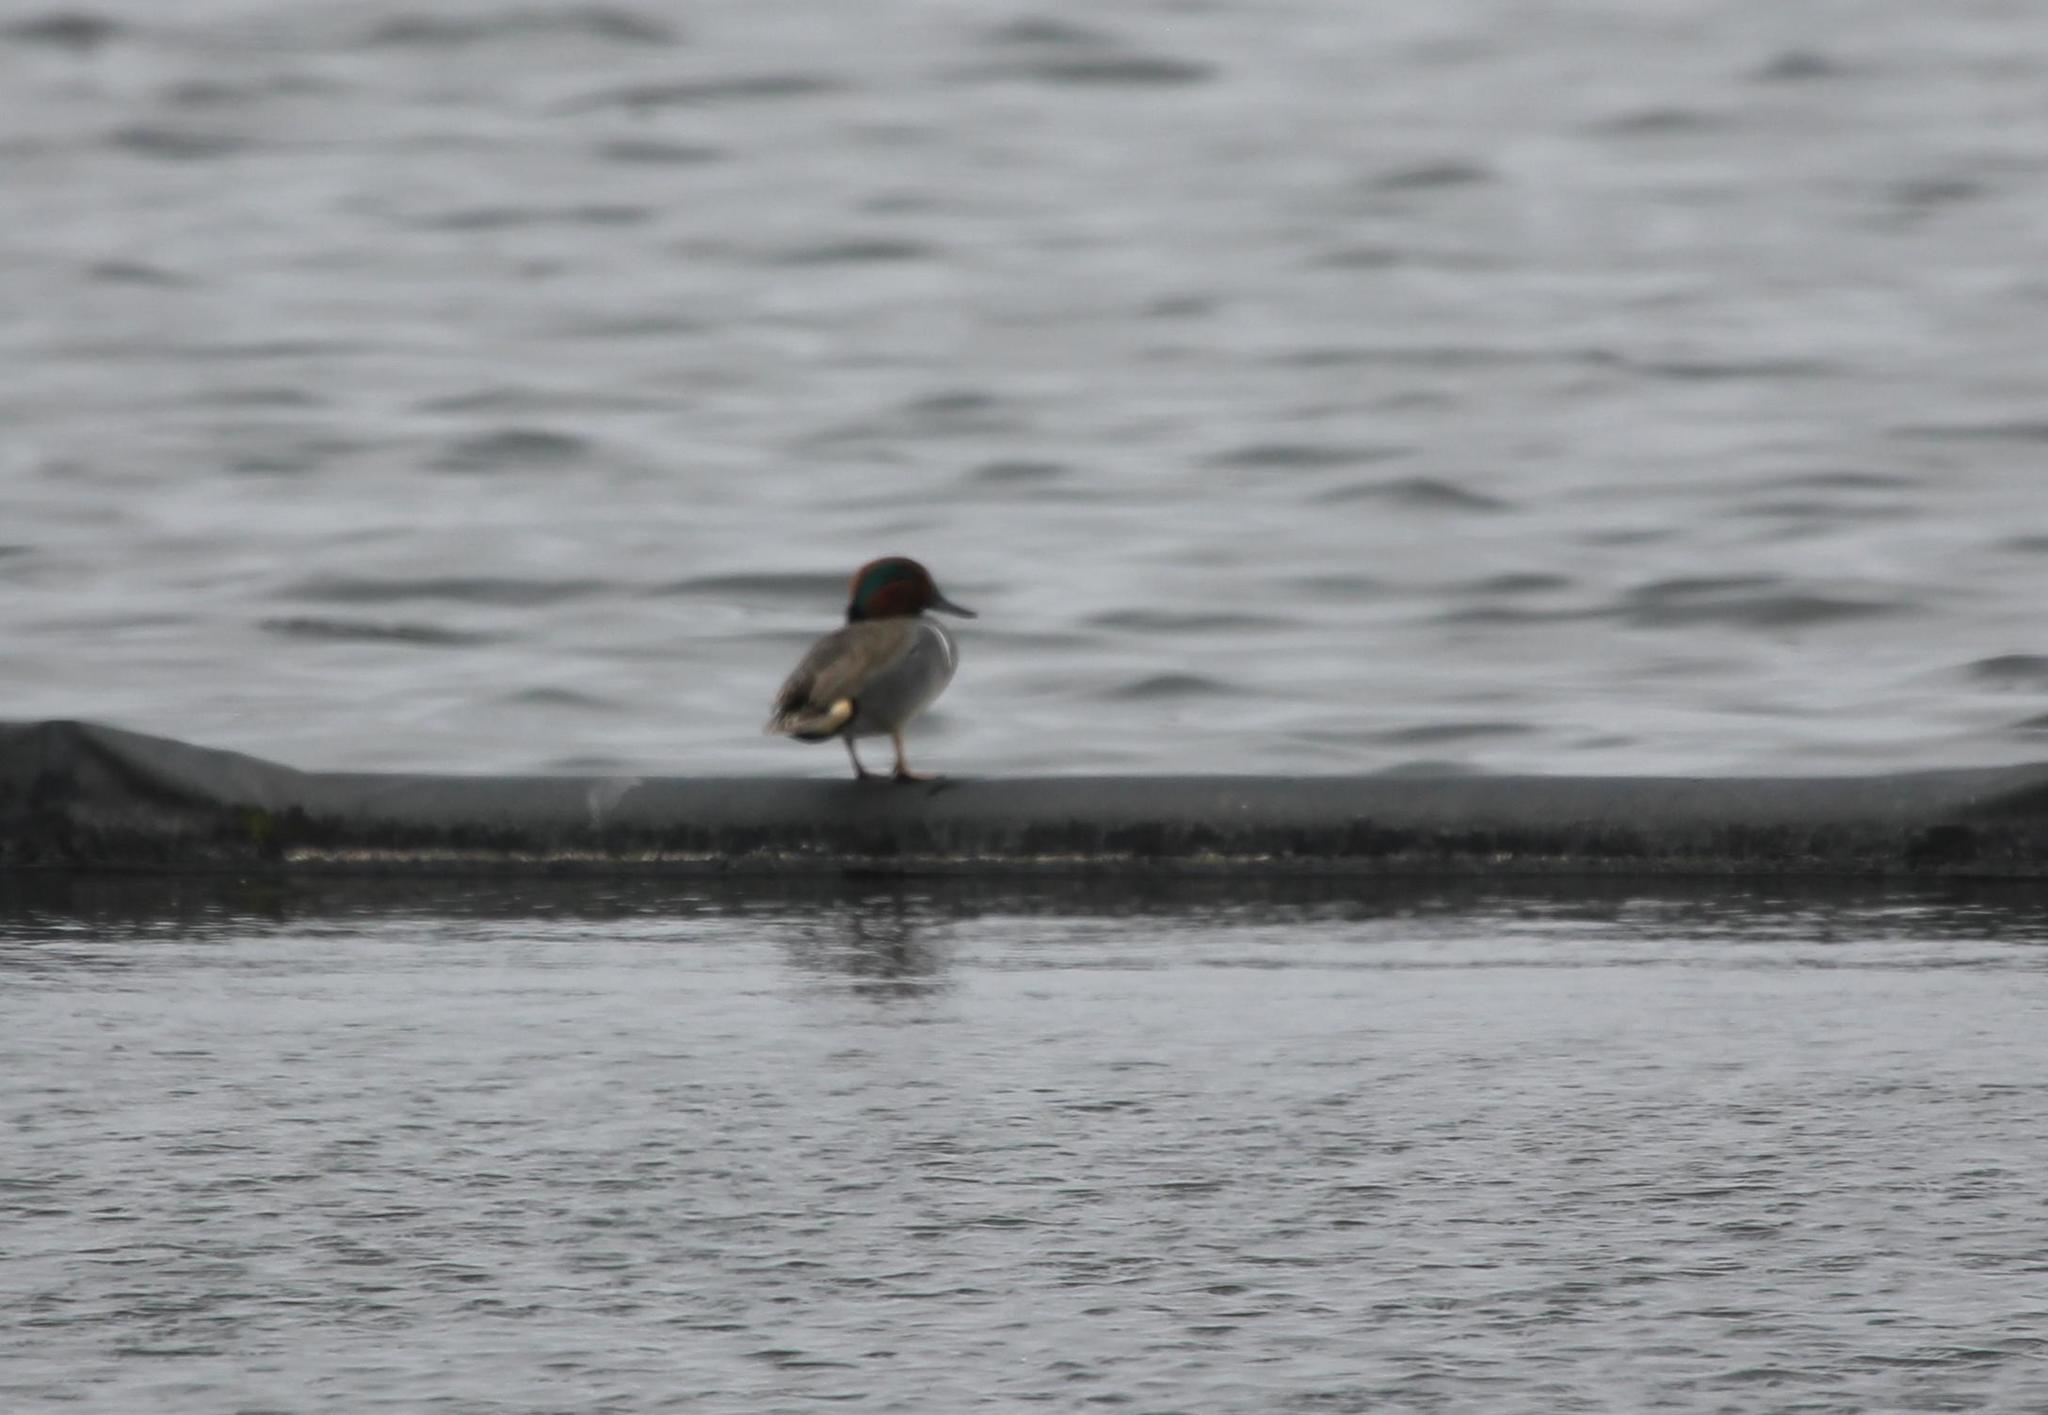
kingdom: Animalia
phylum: Chordata
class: Aves
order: Anseriformes
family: Anatidae
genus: Anas
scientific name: Anas crecca
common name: Eurasian teal
